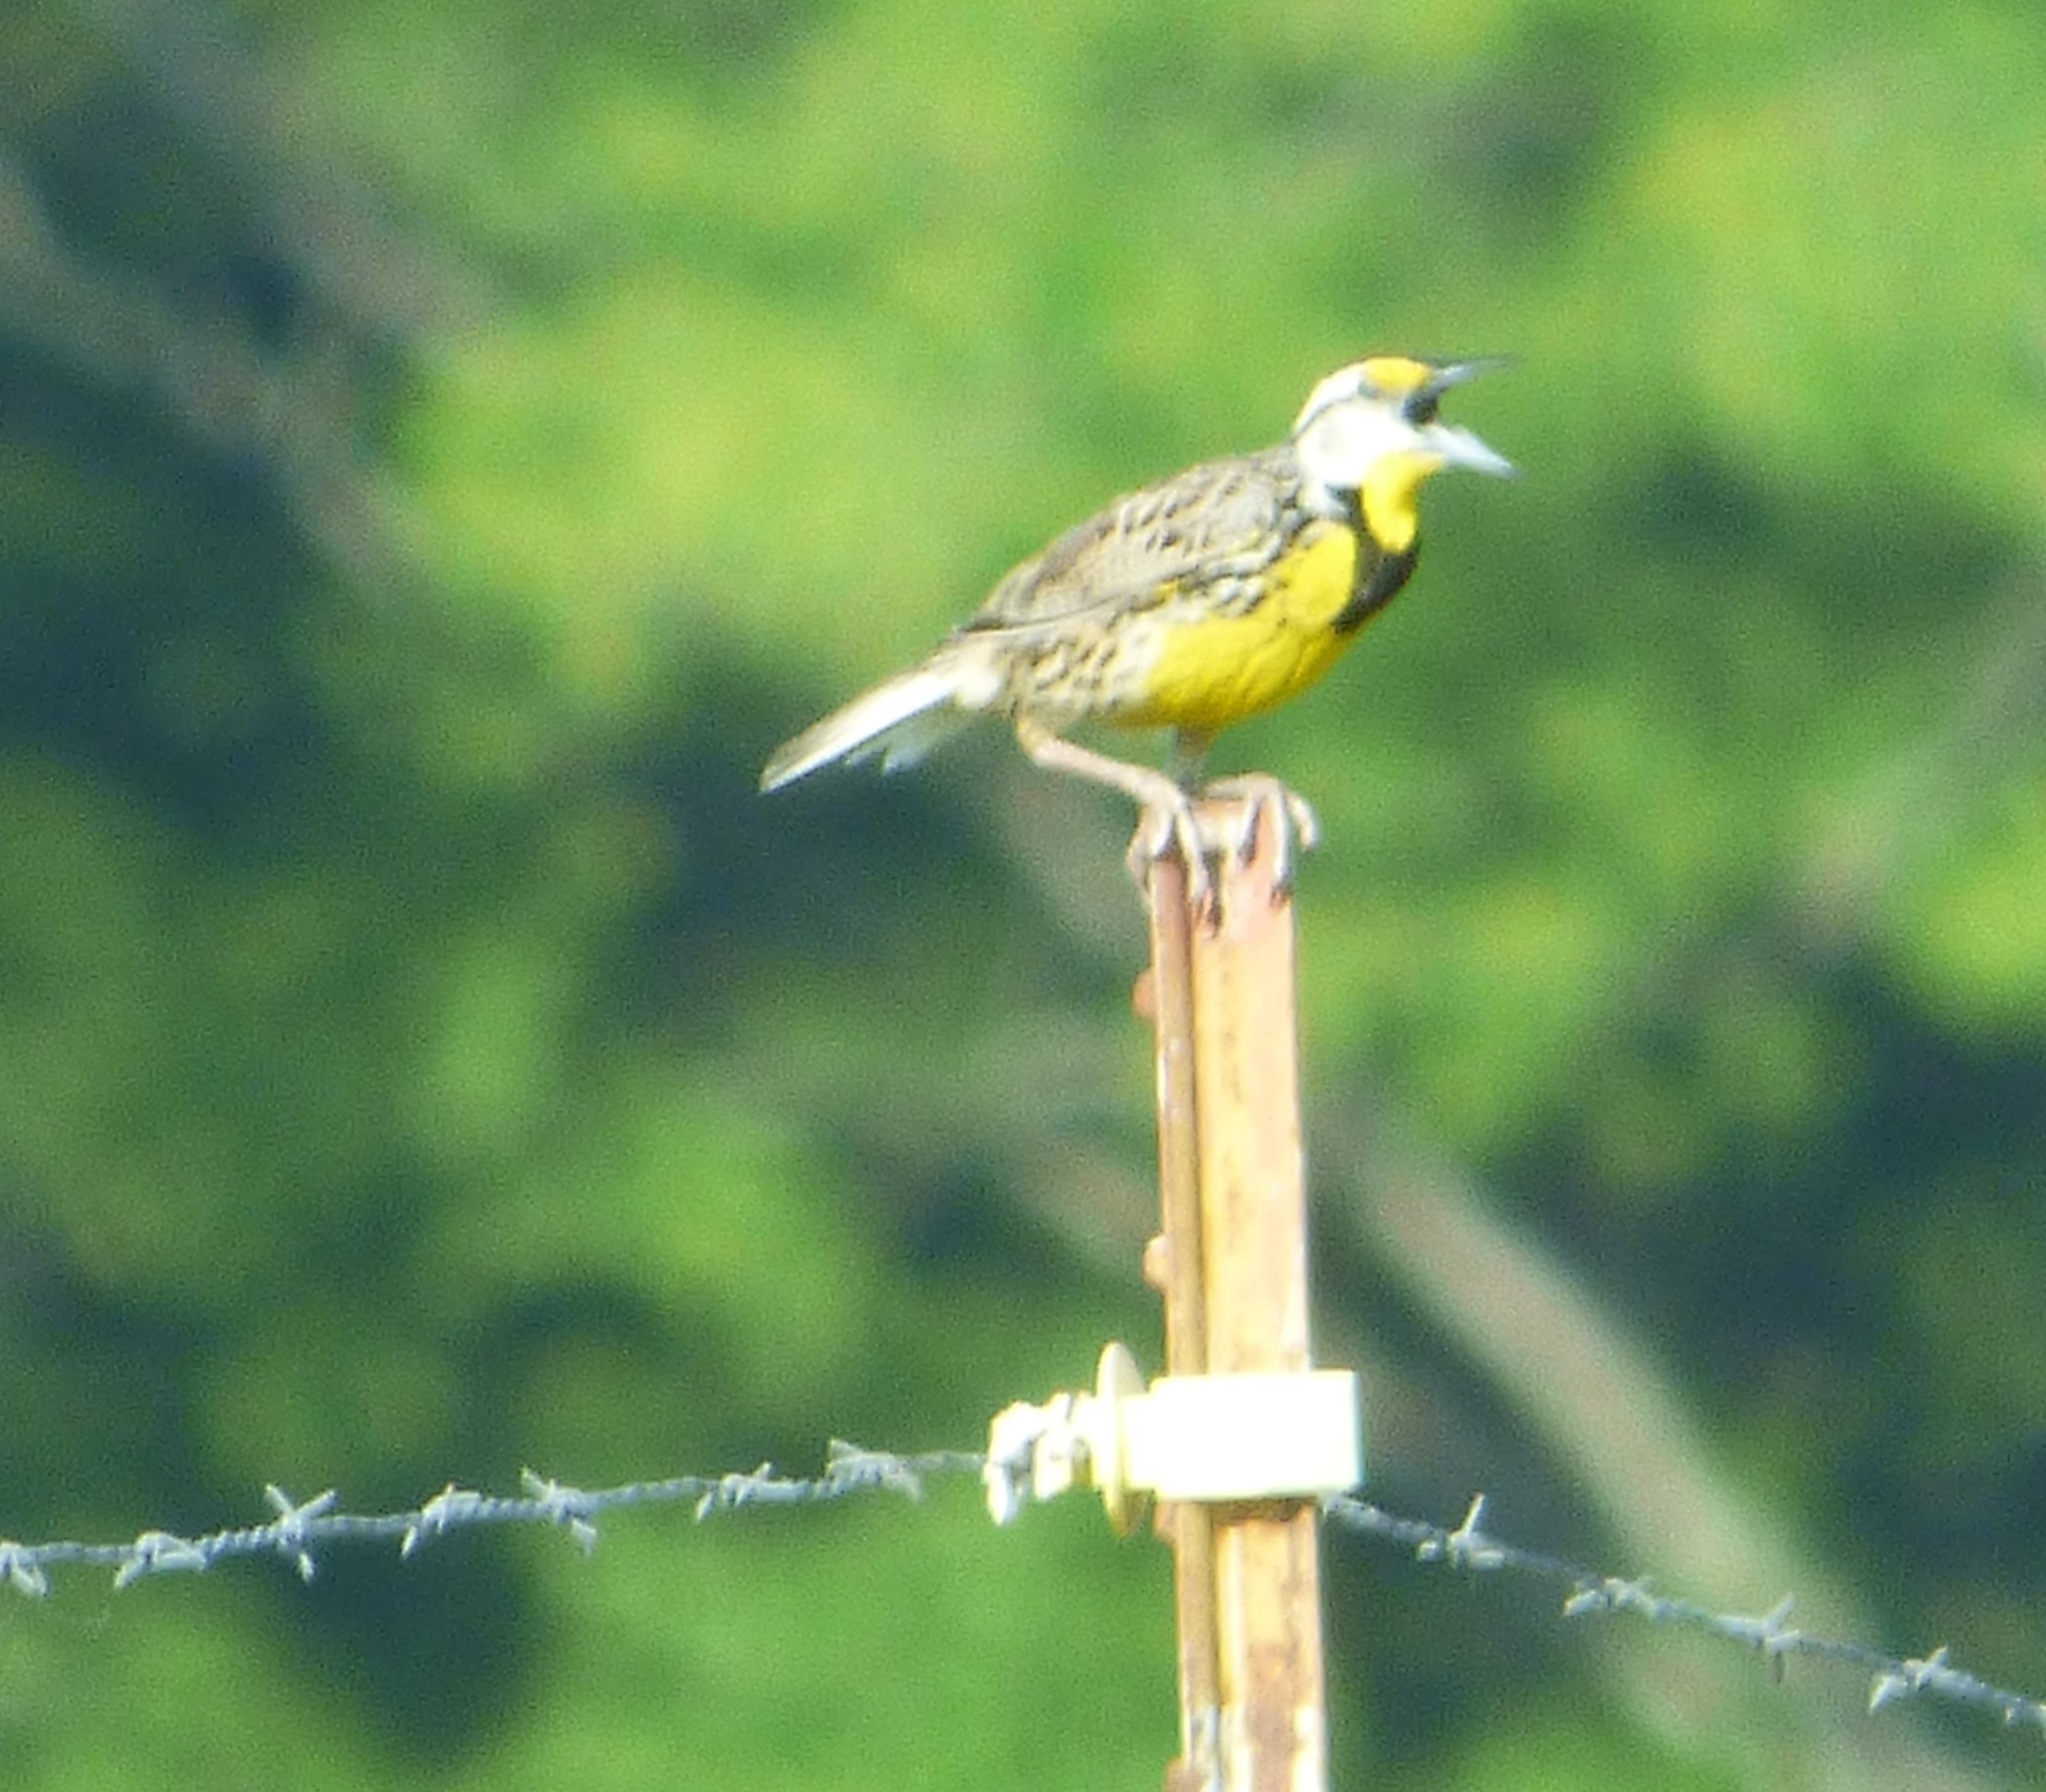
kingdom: Animalia
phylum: Chordata
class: Aves
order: Passeriformes
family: Icteridae
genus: Sturnella
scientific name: Sturnella magna
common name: Eastern meadowlark
